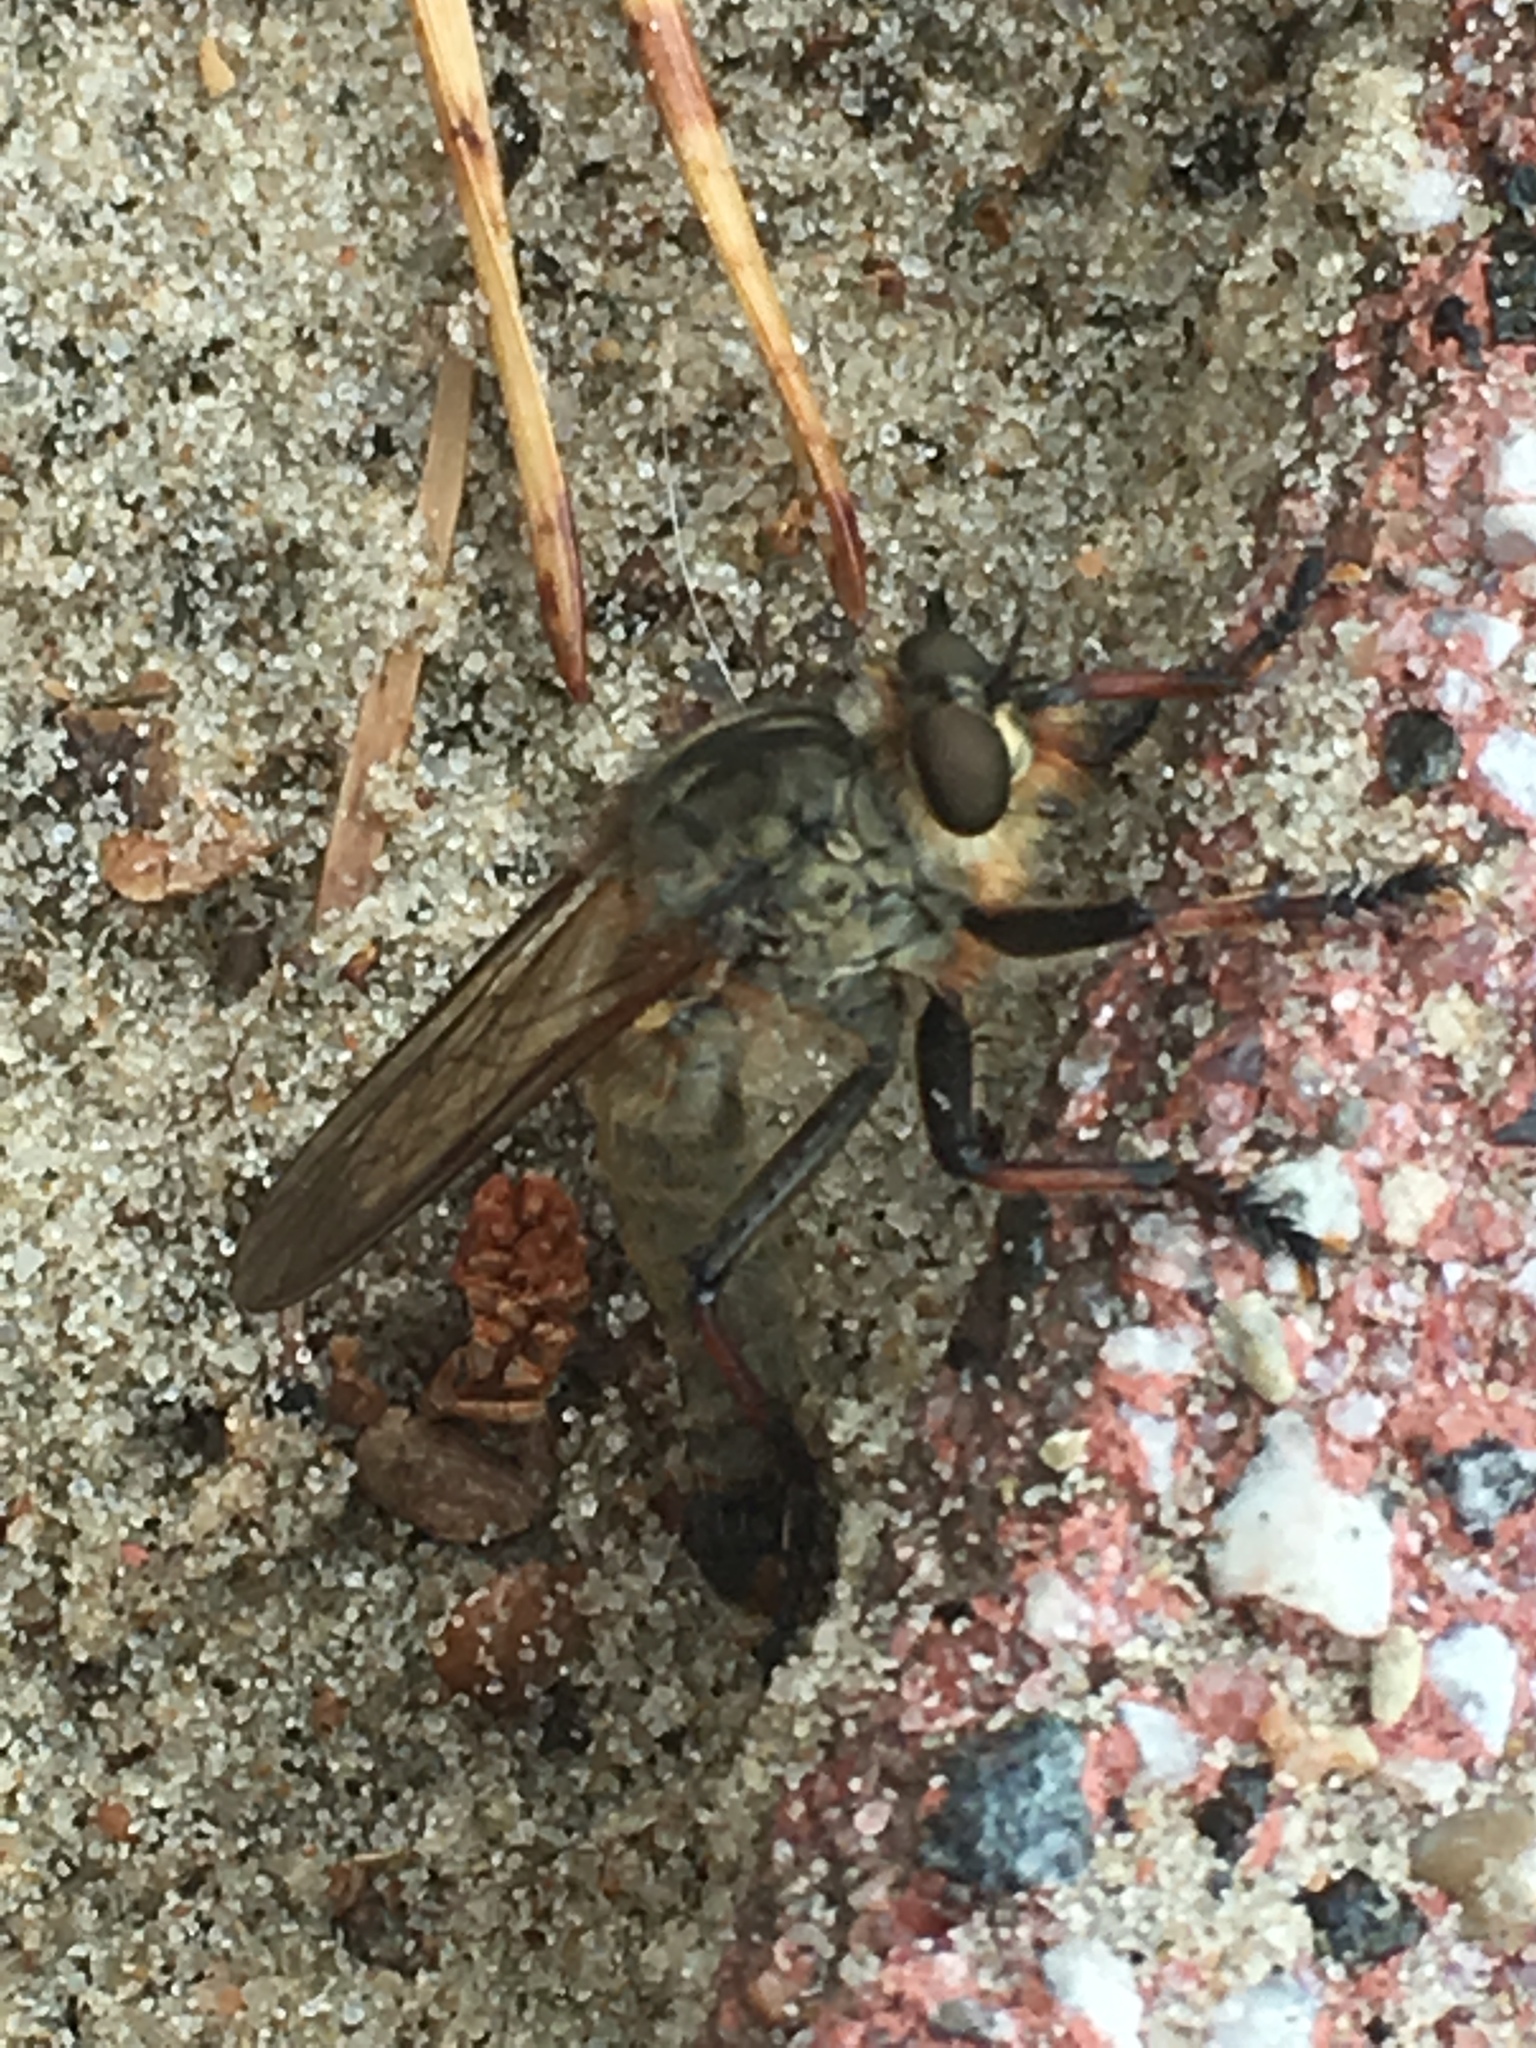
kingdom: Animalia
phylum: Arthropoda
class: Insecta
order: Diptera
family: Asilidae
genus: Antipalus
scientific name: Antipalus varipes
